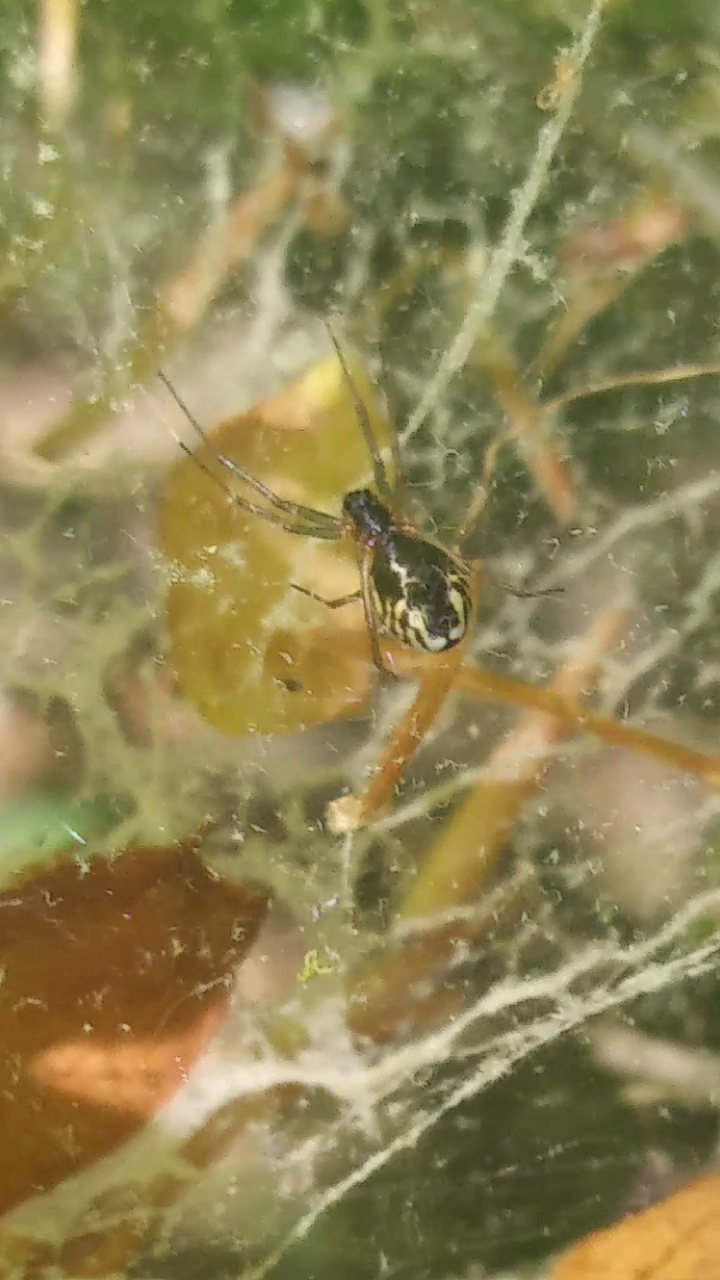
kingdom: Animalia
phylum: Arthropoda
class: Arachnida
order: Araneae
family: Linyphiidae
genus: Frontinella
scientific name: Frontinella pyramitela
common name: Bowl-and-doily spider
